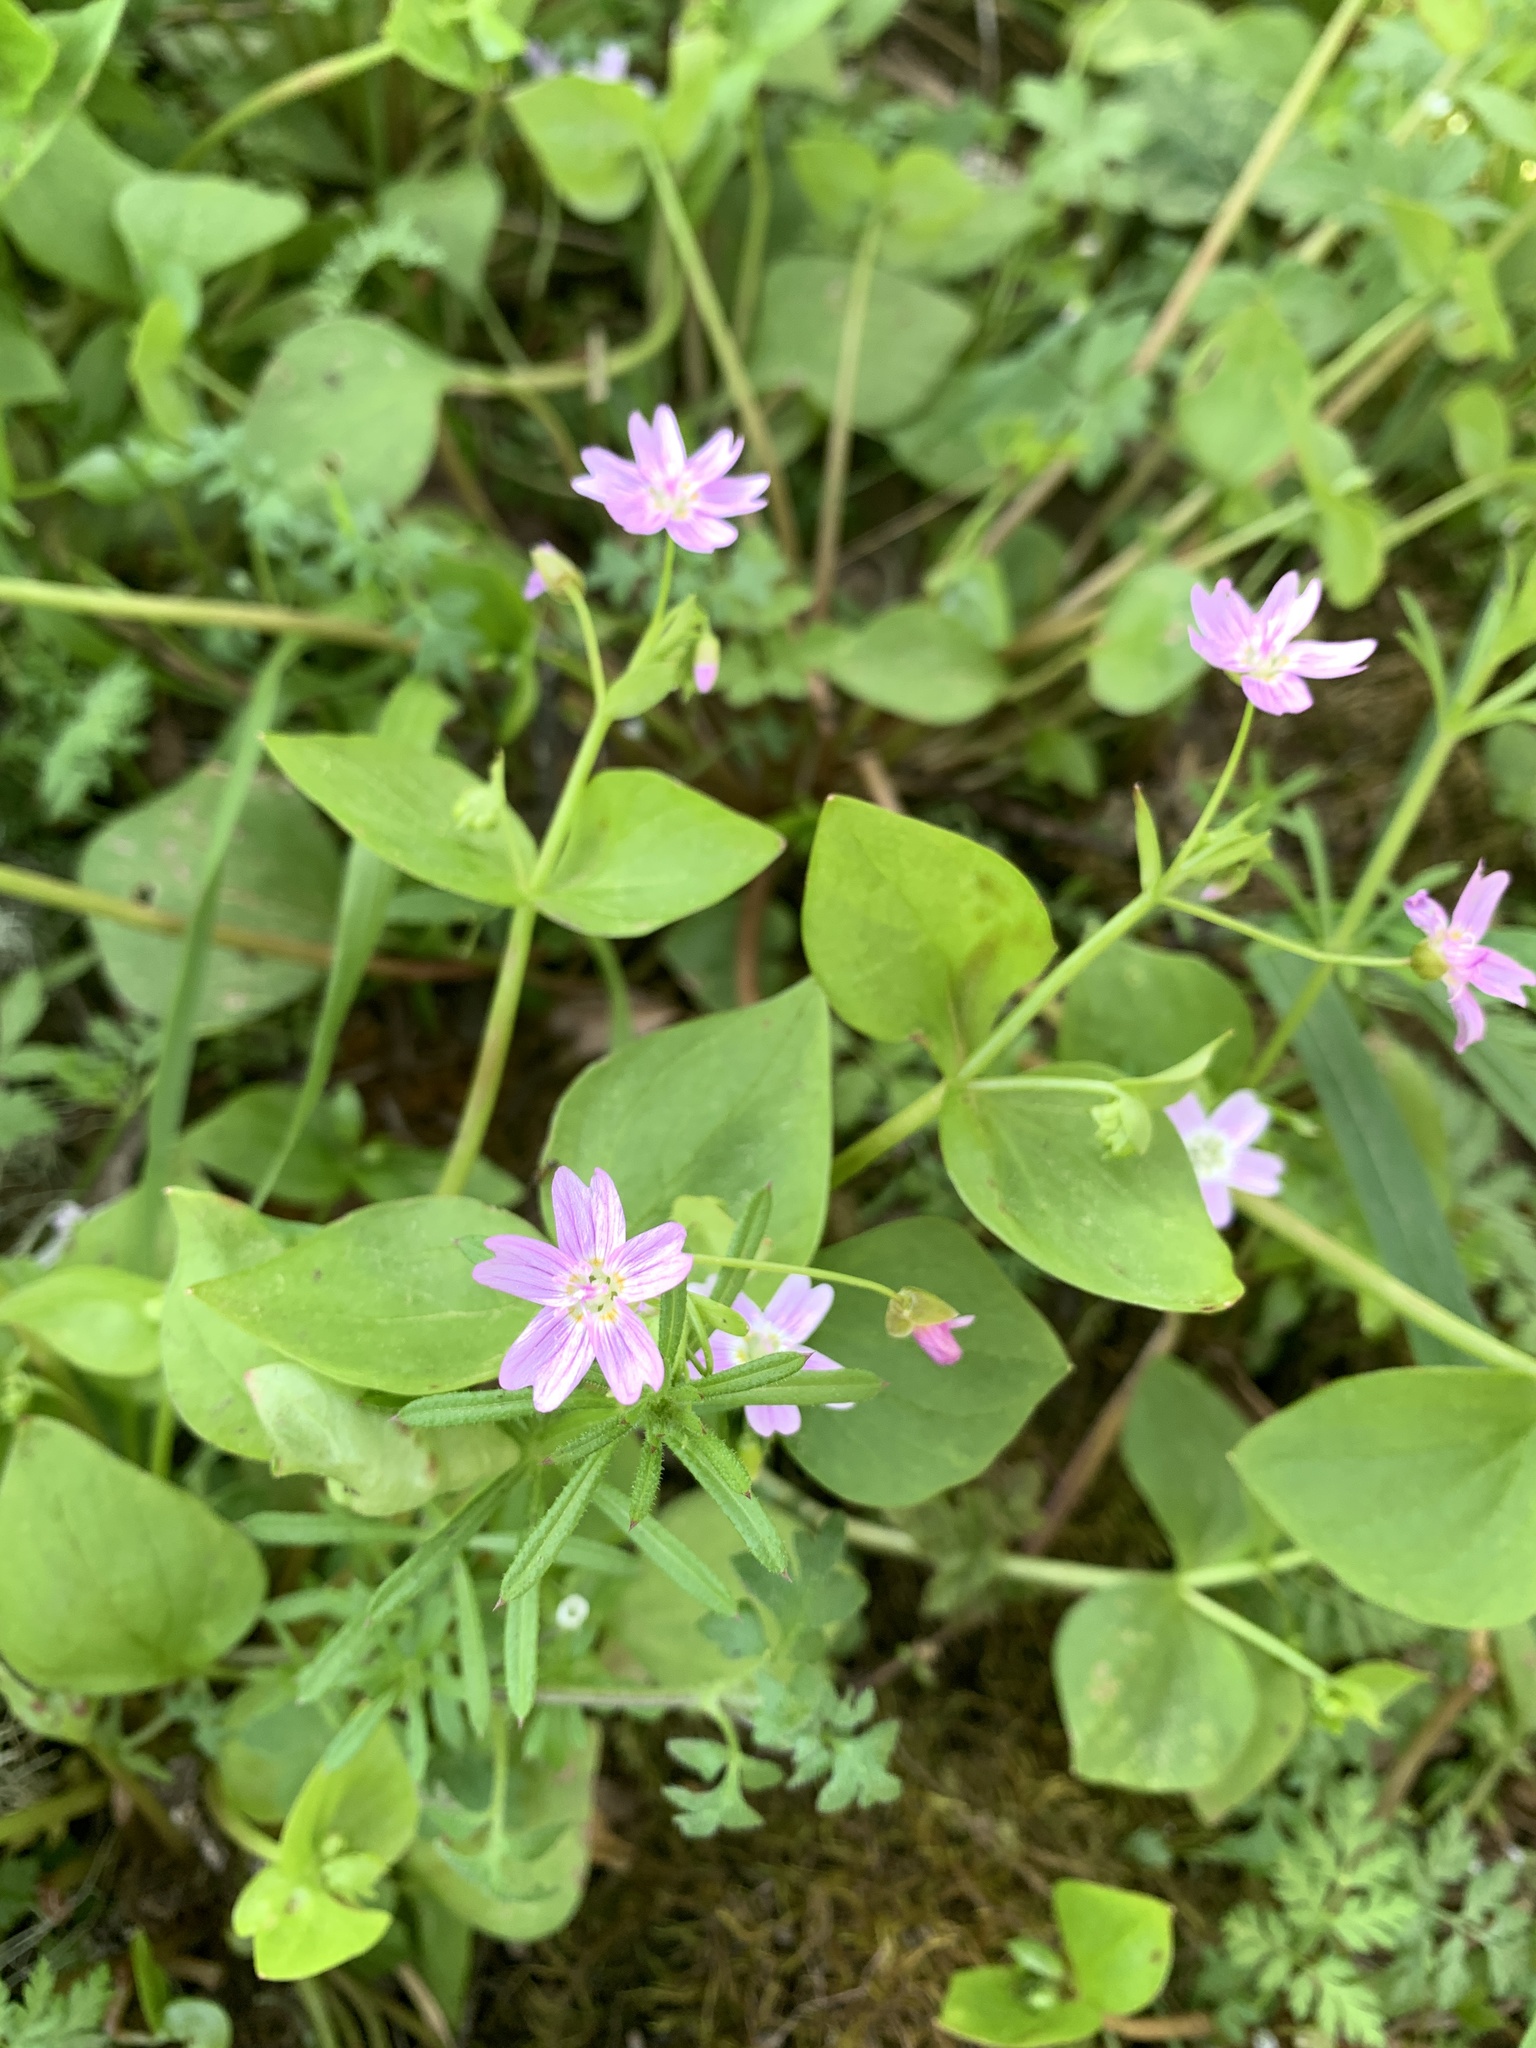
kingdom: Plantae
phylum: Tracheophyta
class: Magnoliopsida
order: Caryophyllales
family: Montiaceae
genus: Claytonia
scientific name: Claytonia sibirica
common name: Pink purslane
